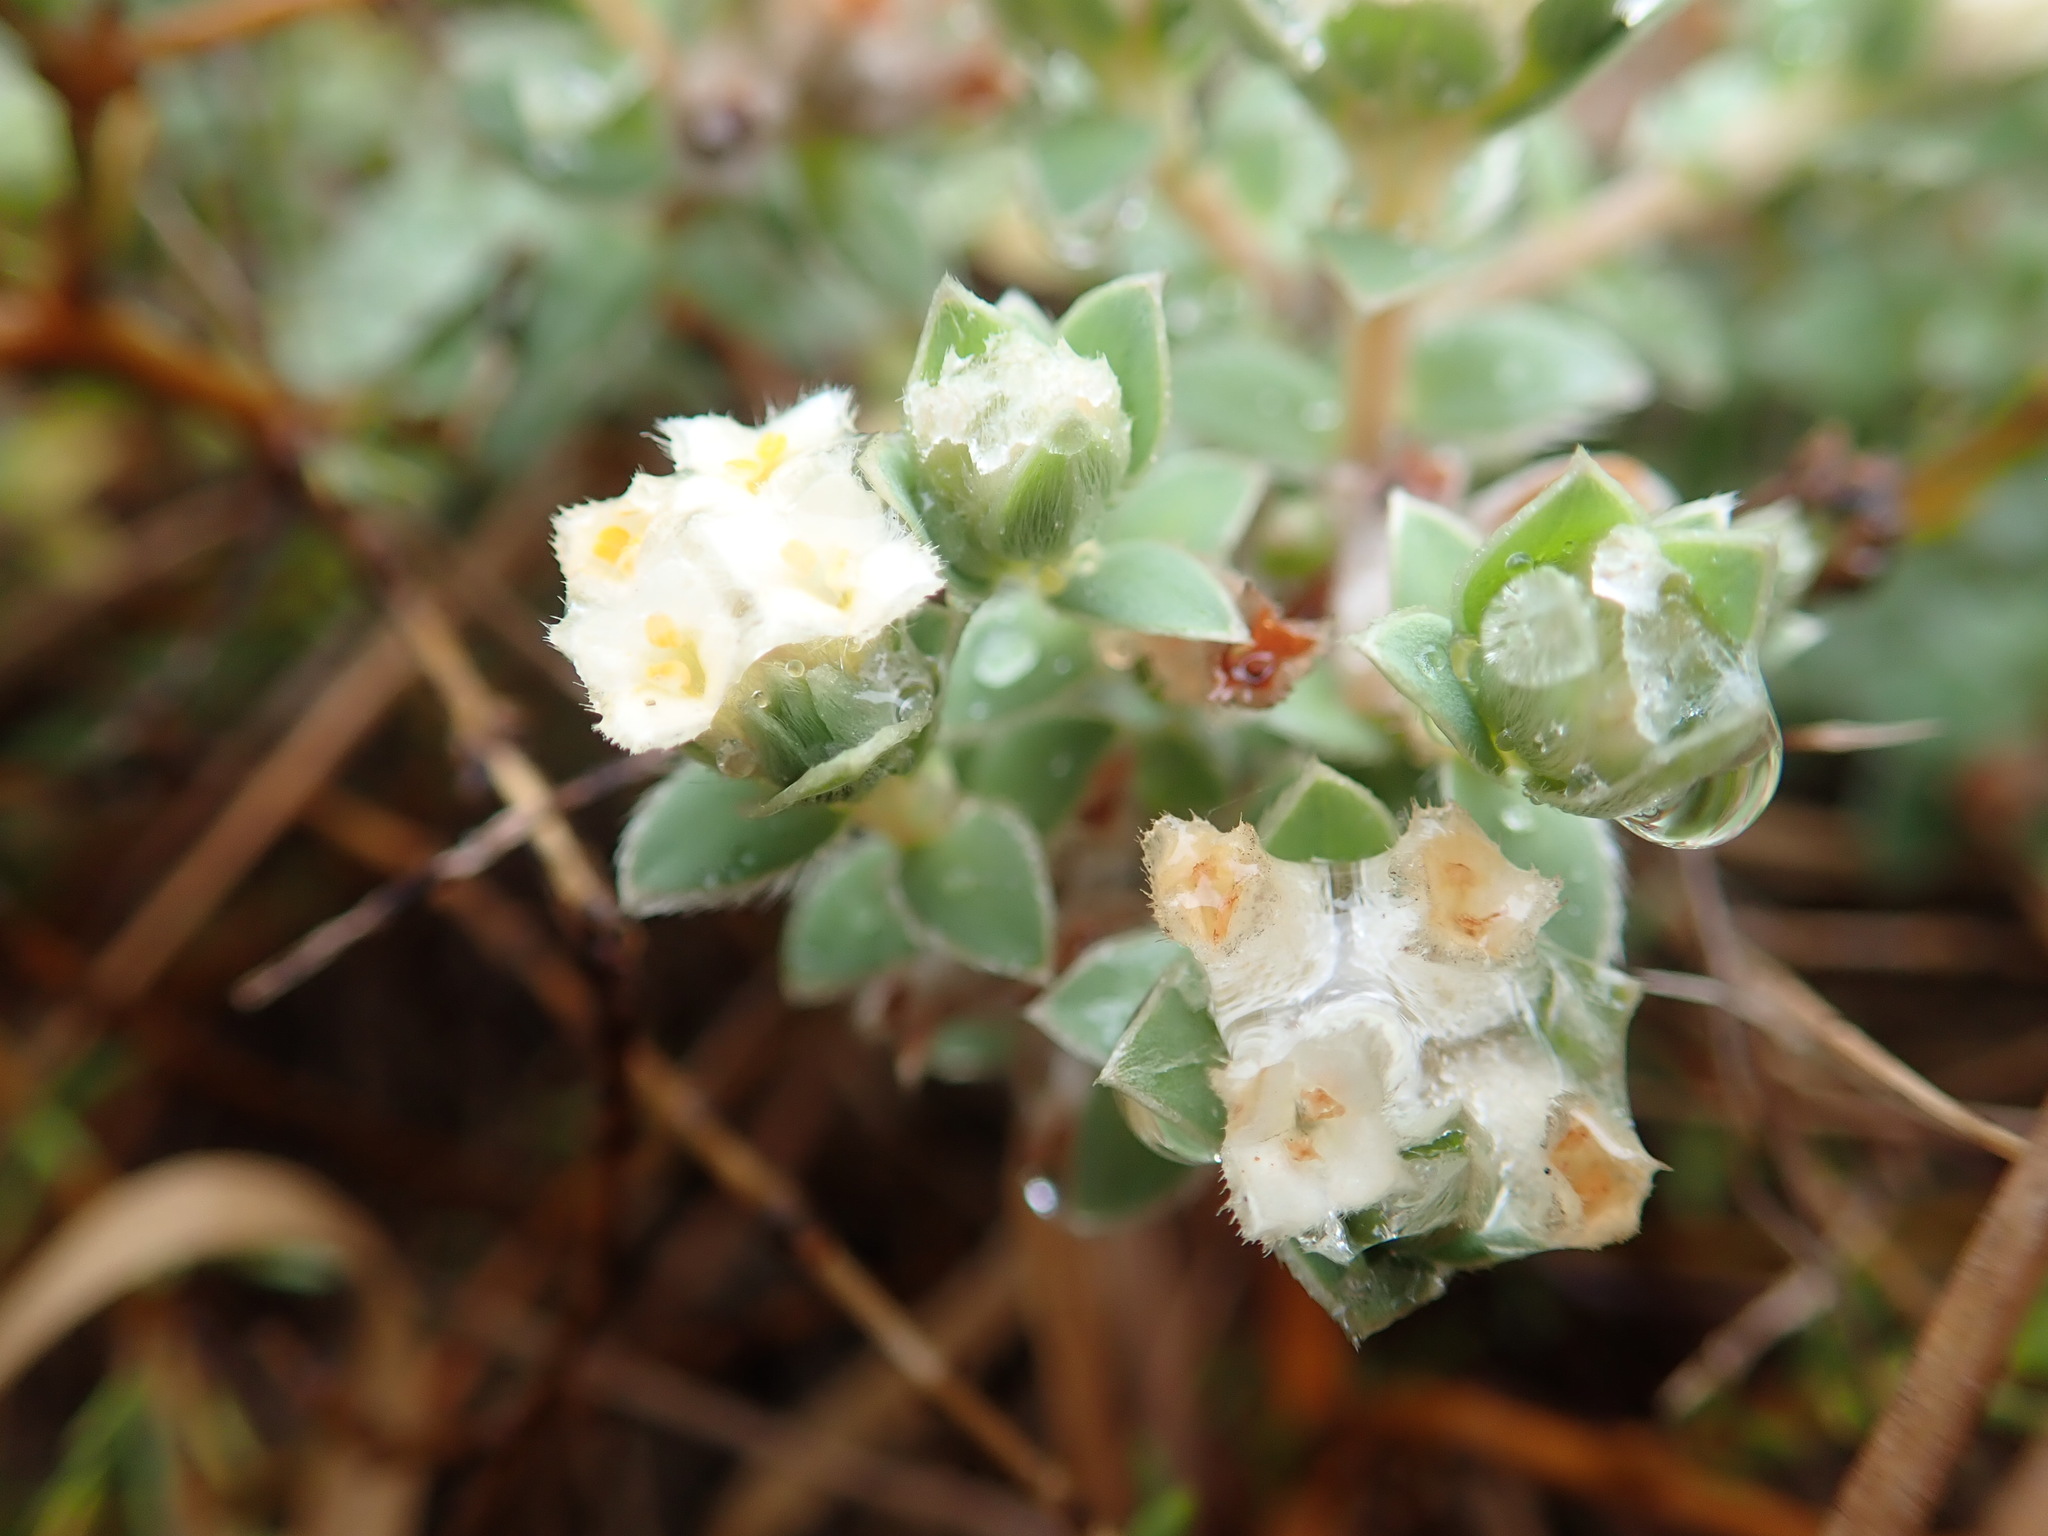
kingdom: Plantae
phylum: Tracheophyta
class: Magnoliopsida
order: Malvales
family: Thymelaeaceae
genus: Pimelea
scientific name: Pimelea villosa
